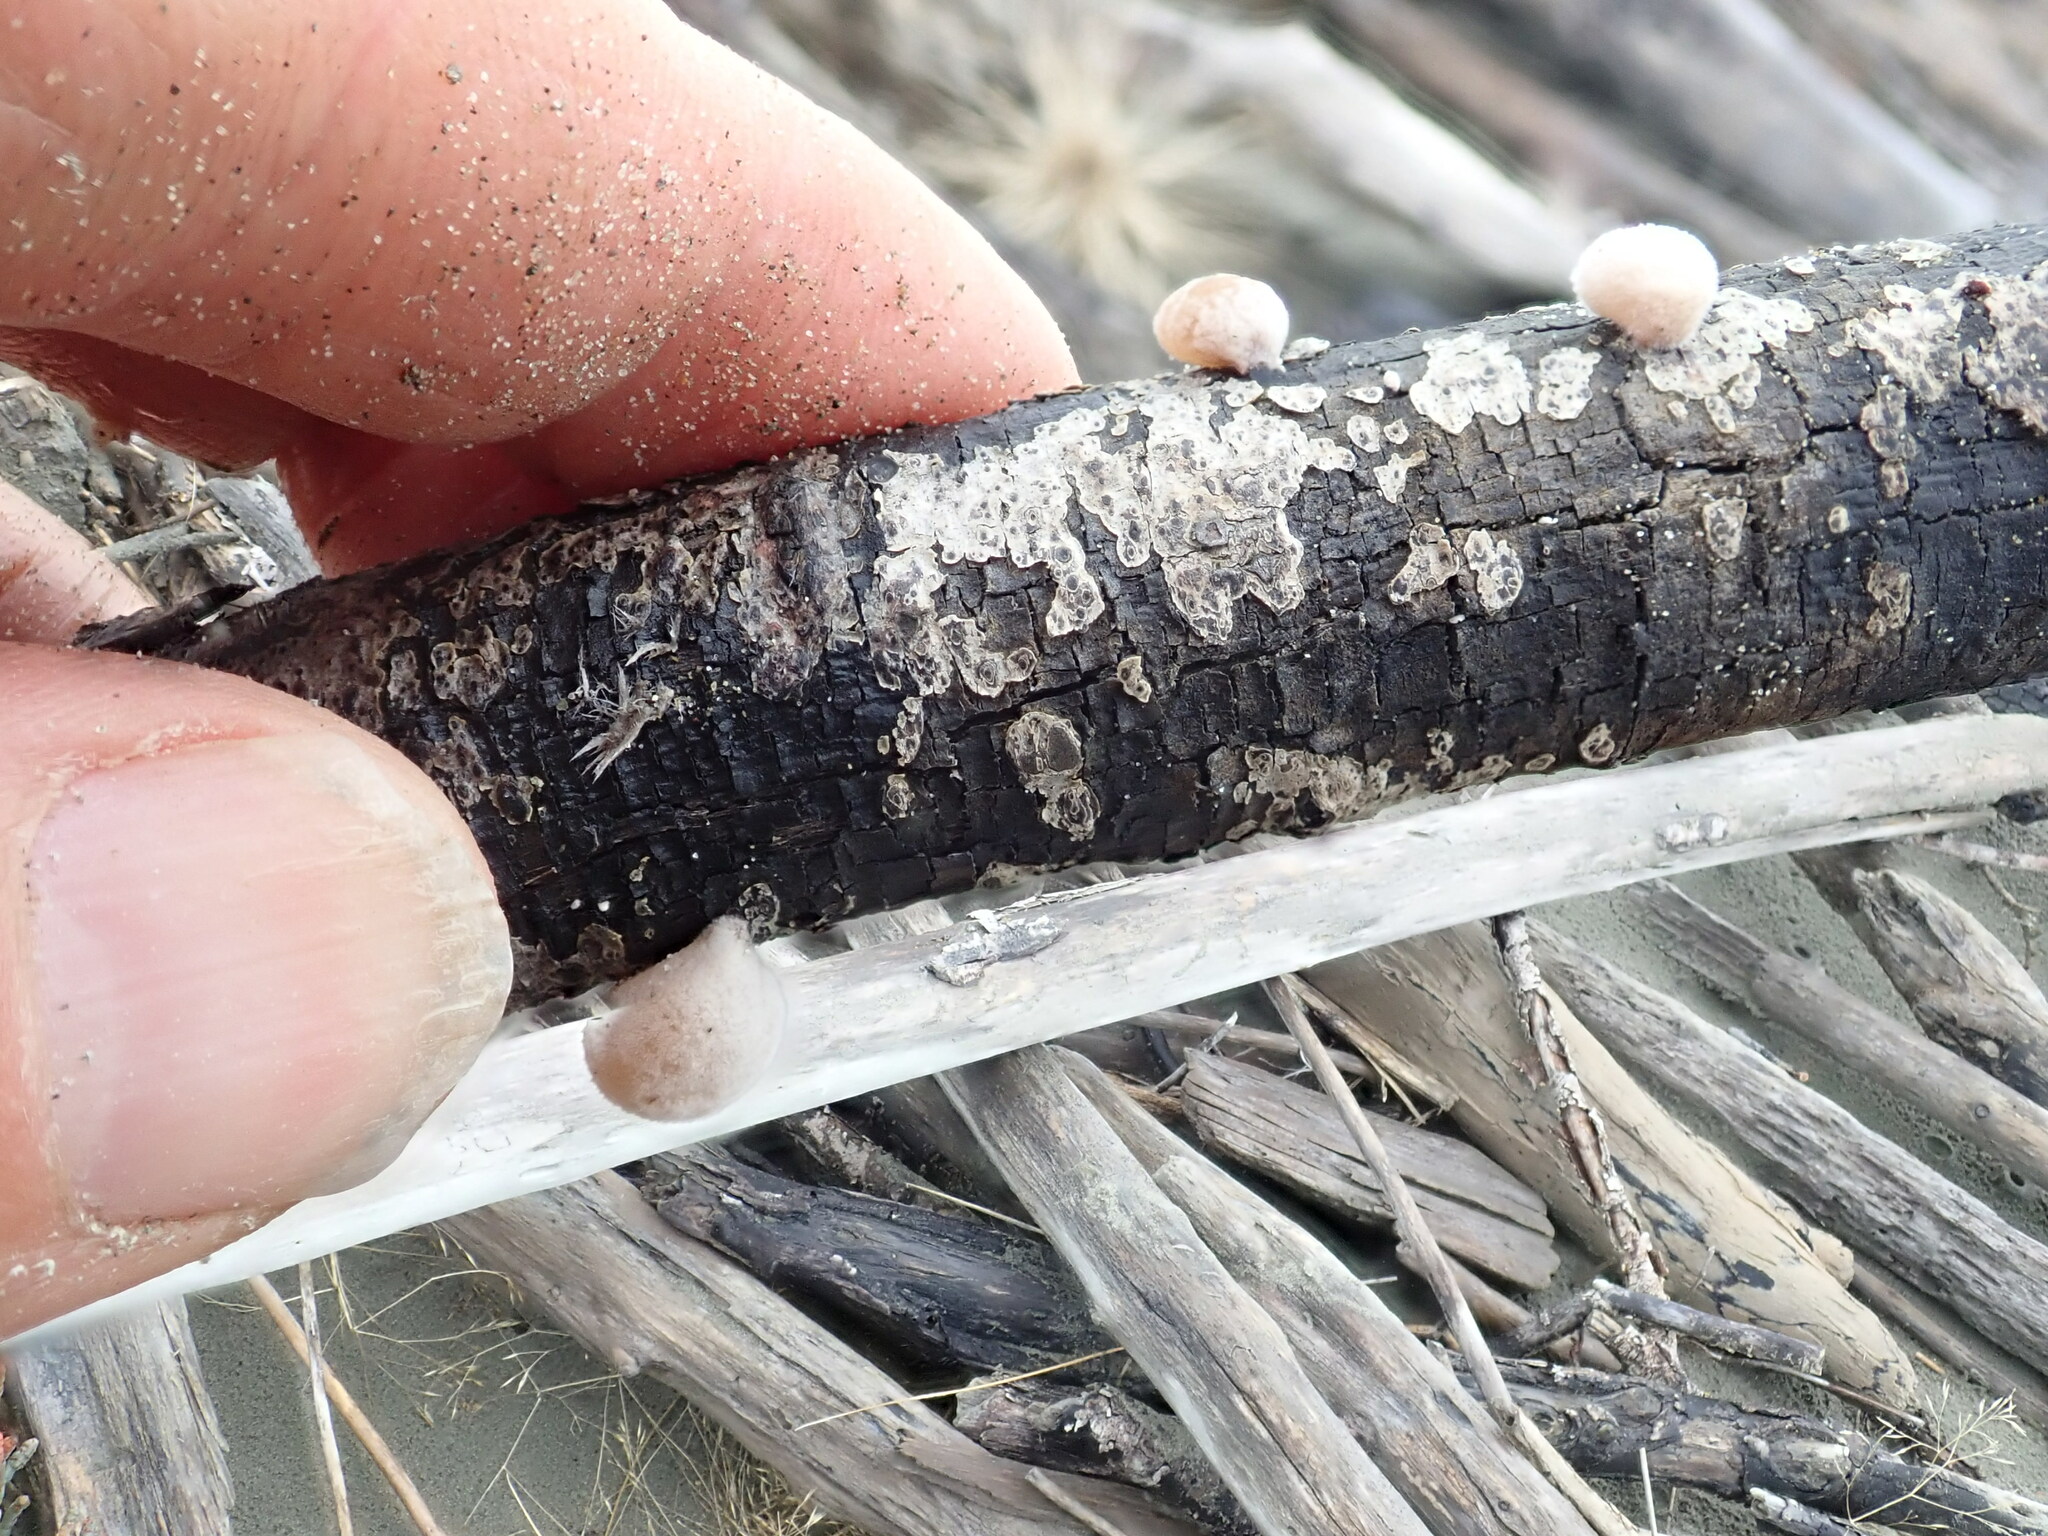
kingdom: Fungi
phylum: Basidiomycota
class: Agaricomycetes
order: Agaricales
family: Schizophyllaceae
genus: Schizophyllum
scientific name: Schizophyllum amplum
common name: Poplar bells
